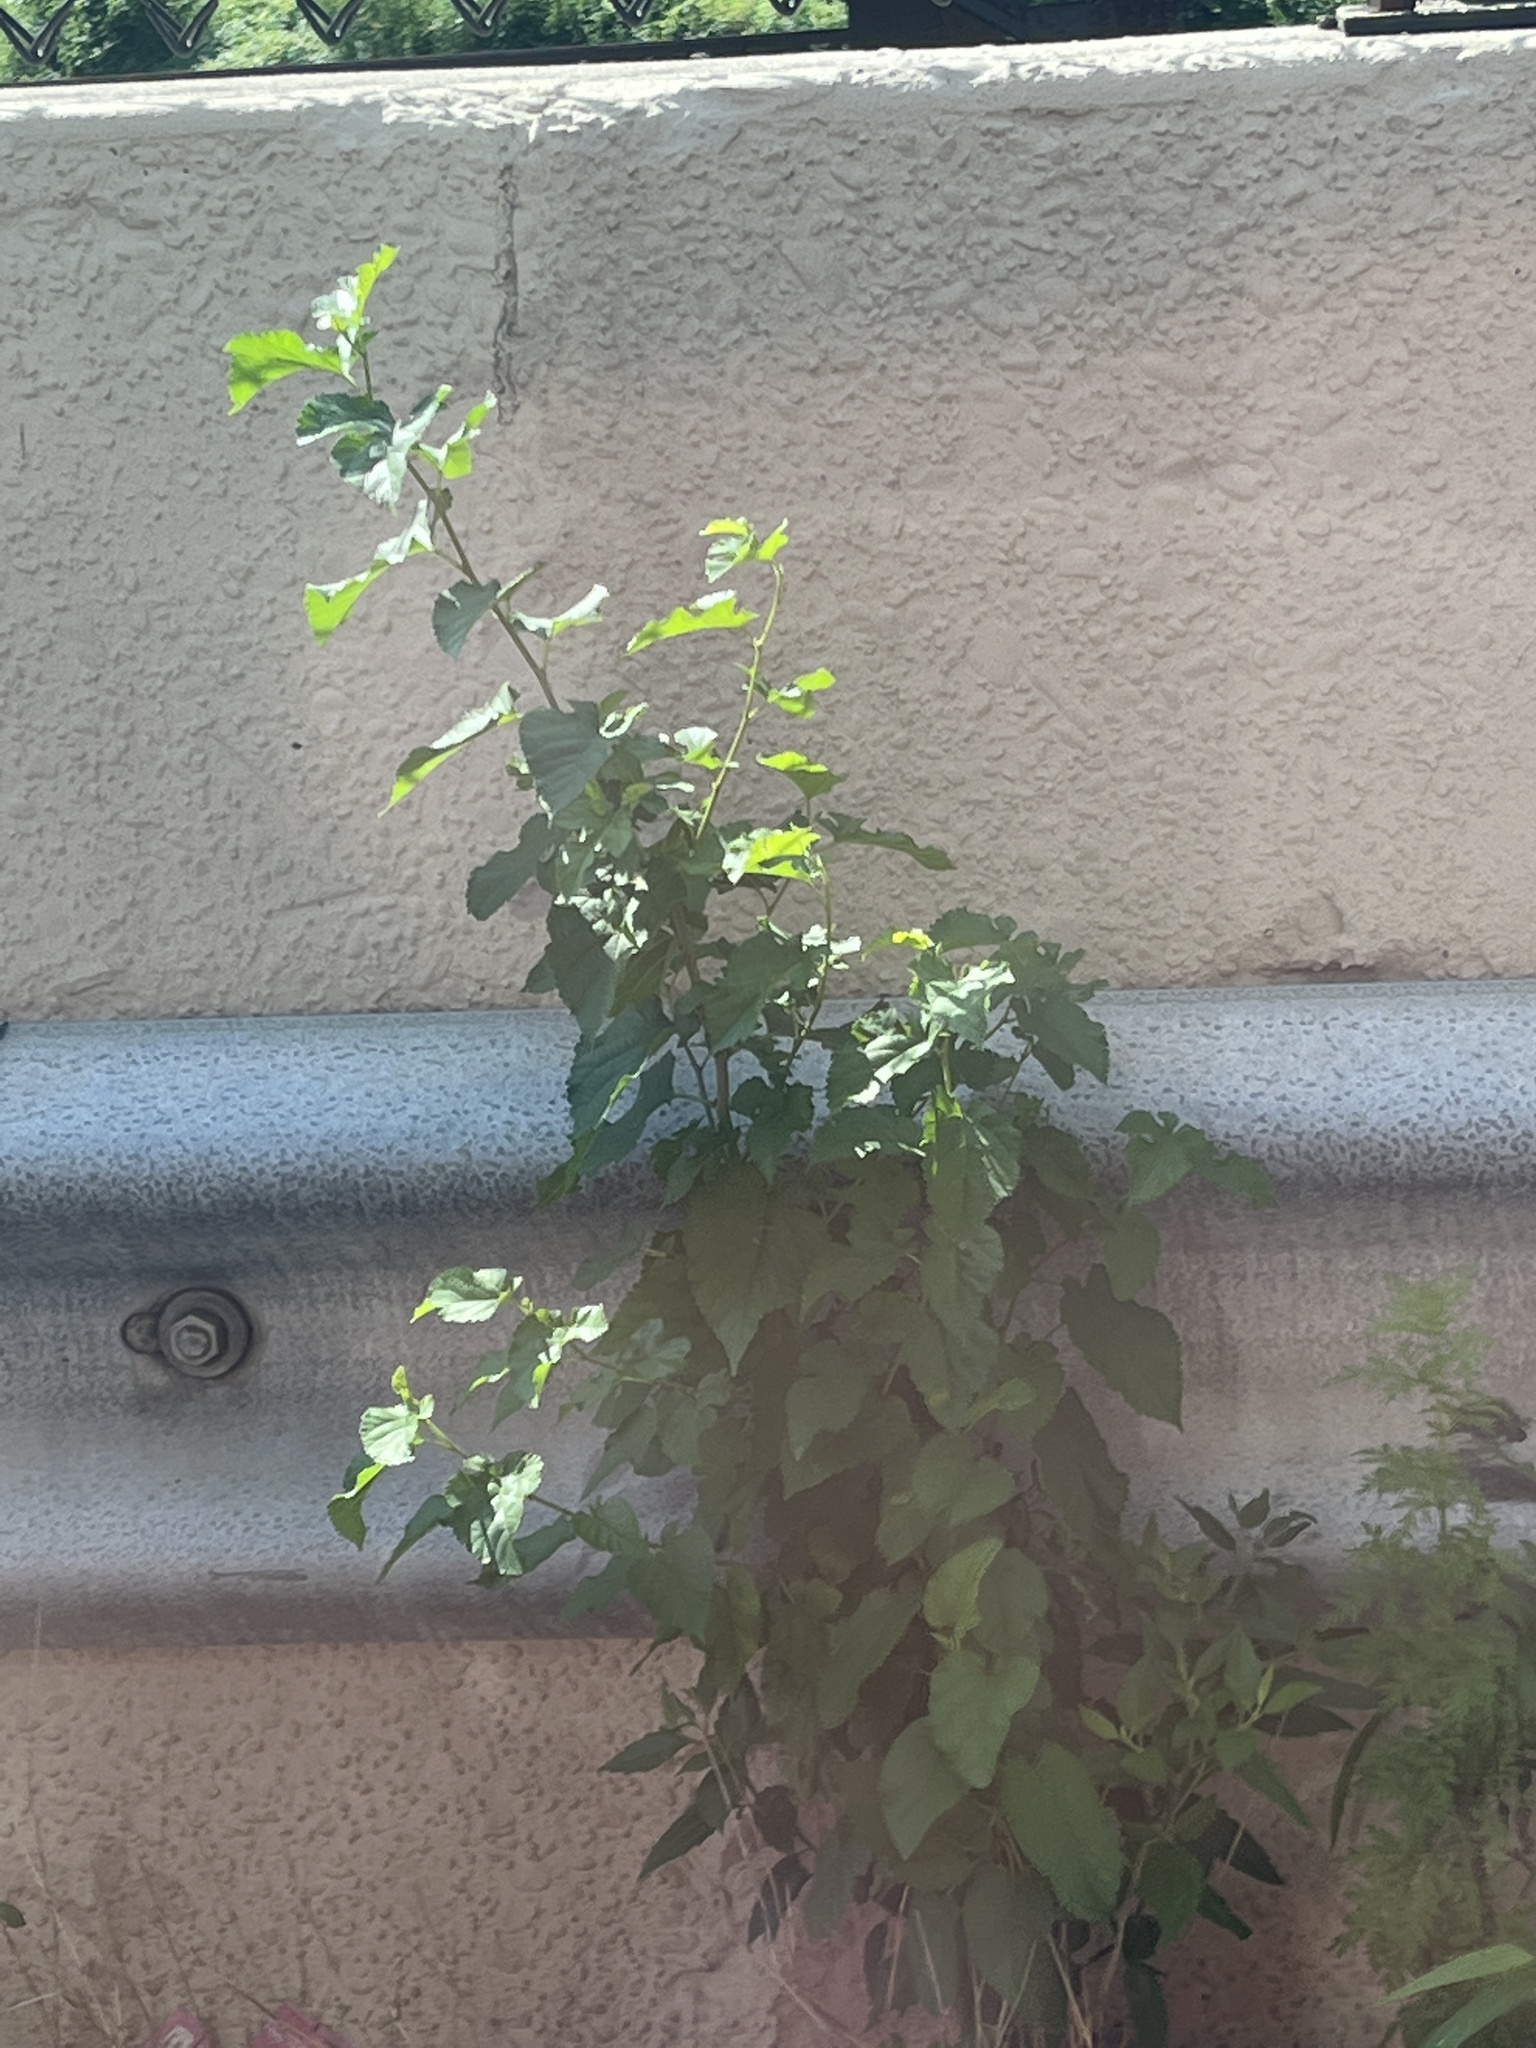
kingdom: Plantae
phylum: Tracheophyta
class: Magnoliopsida
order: Rosales
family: Moraceae
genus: Morus
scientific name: Morus alba
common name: White mulberry
